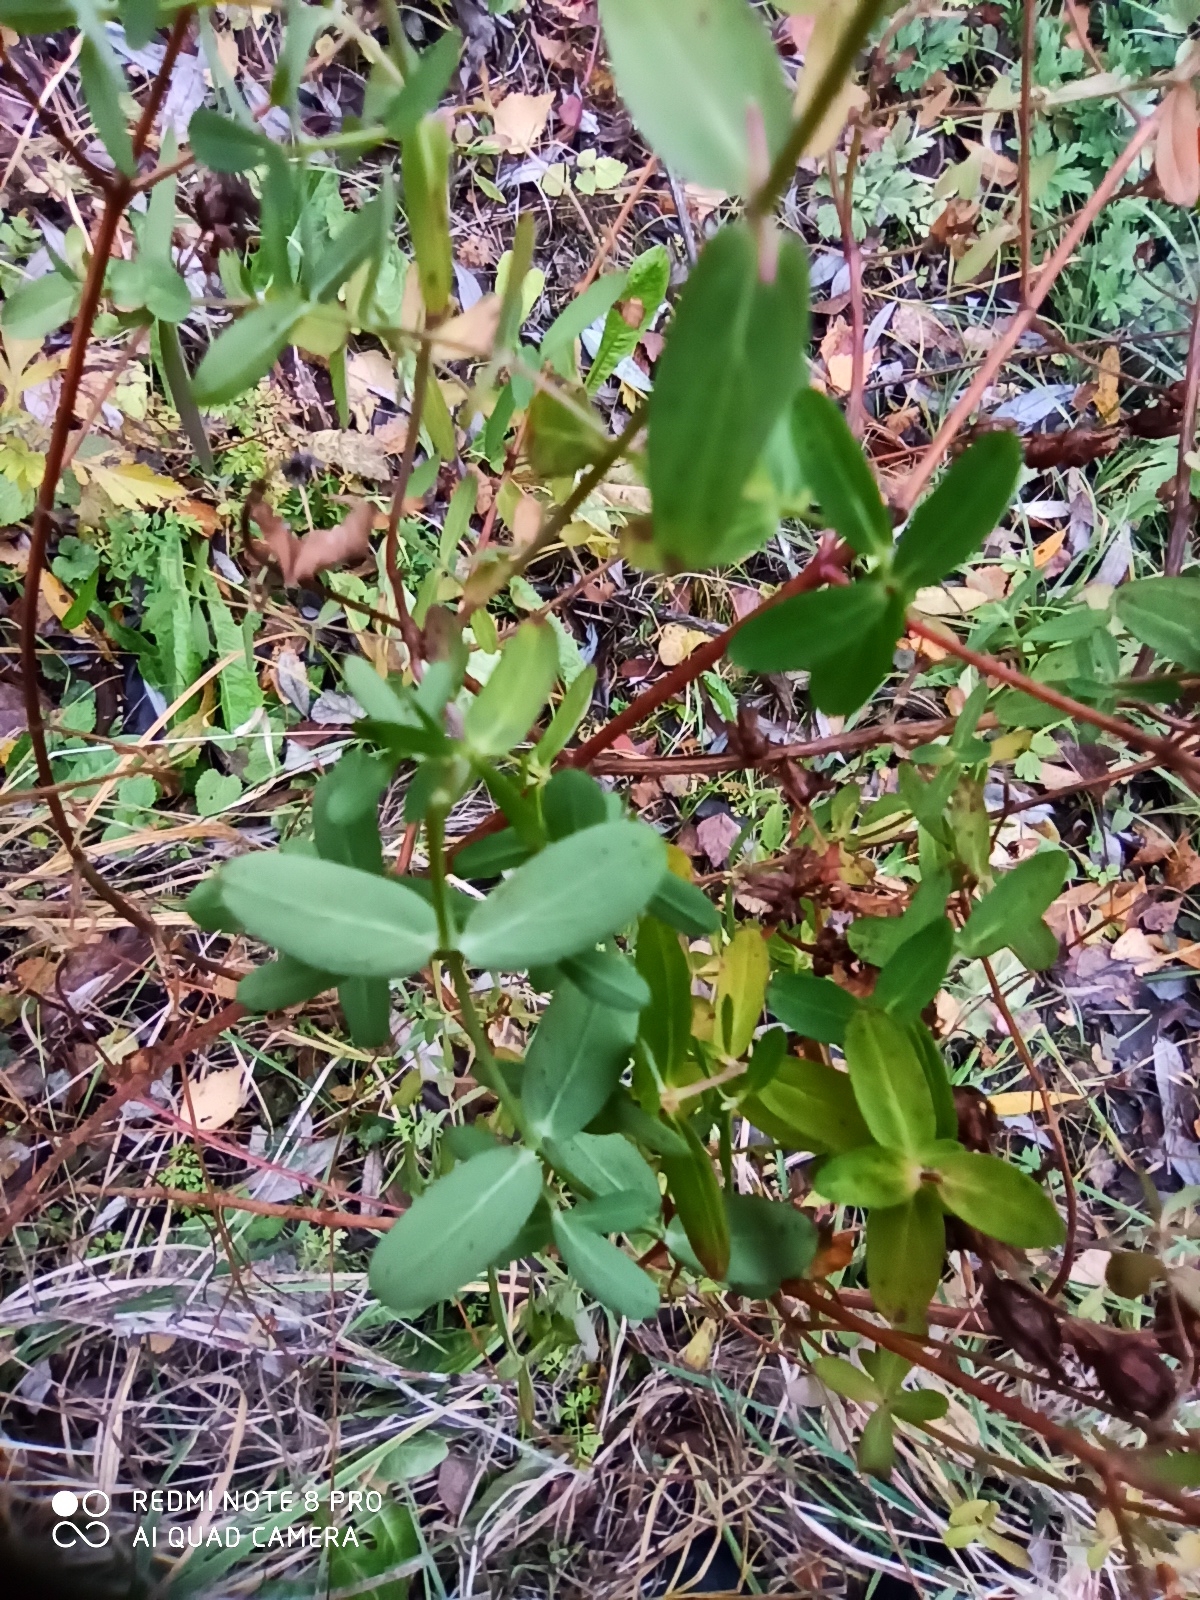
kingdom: Plantae
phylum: Tracheophyta
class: Magnoliopsida
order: Malpighiales
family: Hypericaceae
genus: Hypericum
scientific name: Hypericum perforatum
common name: Common st. johnswort
